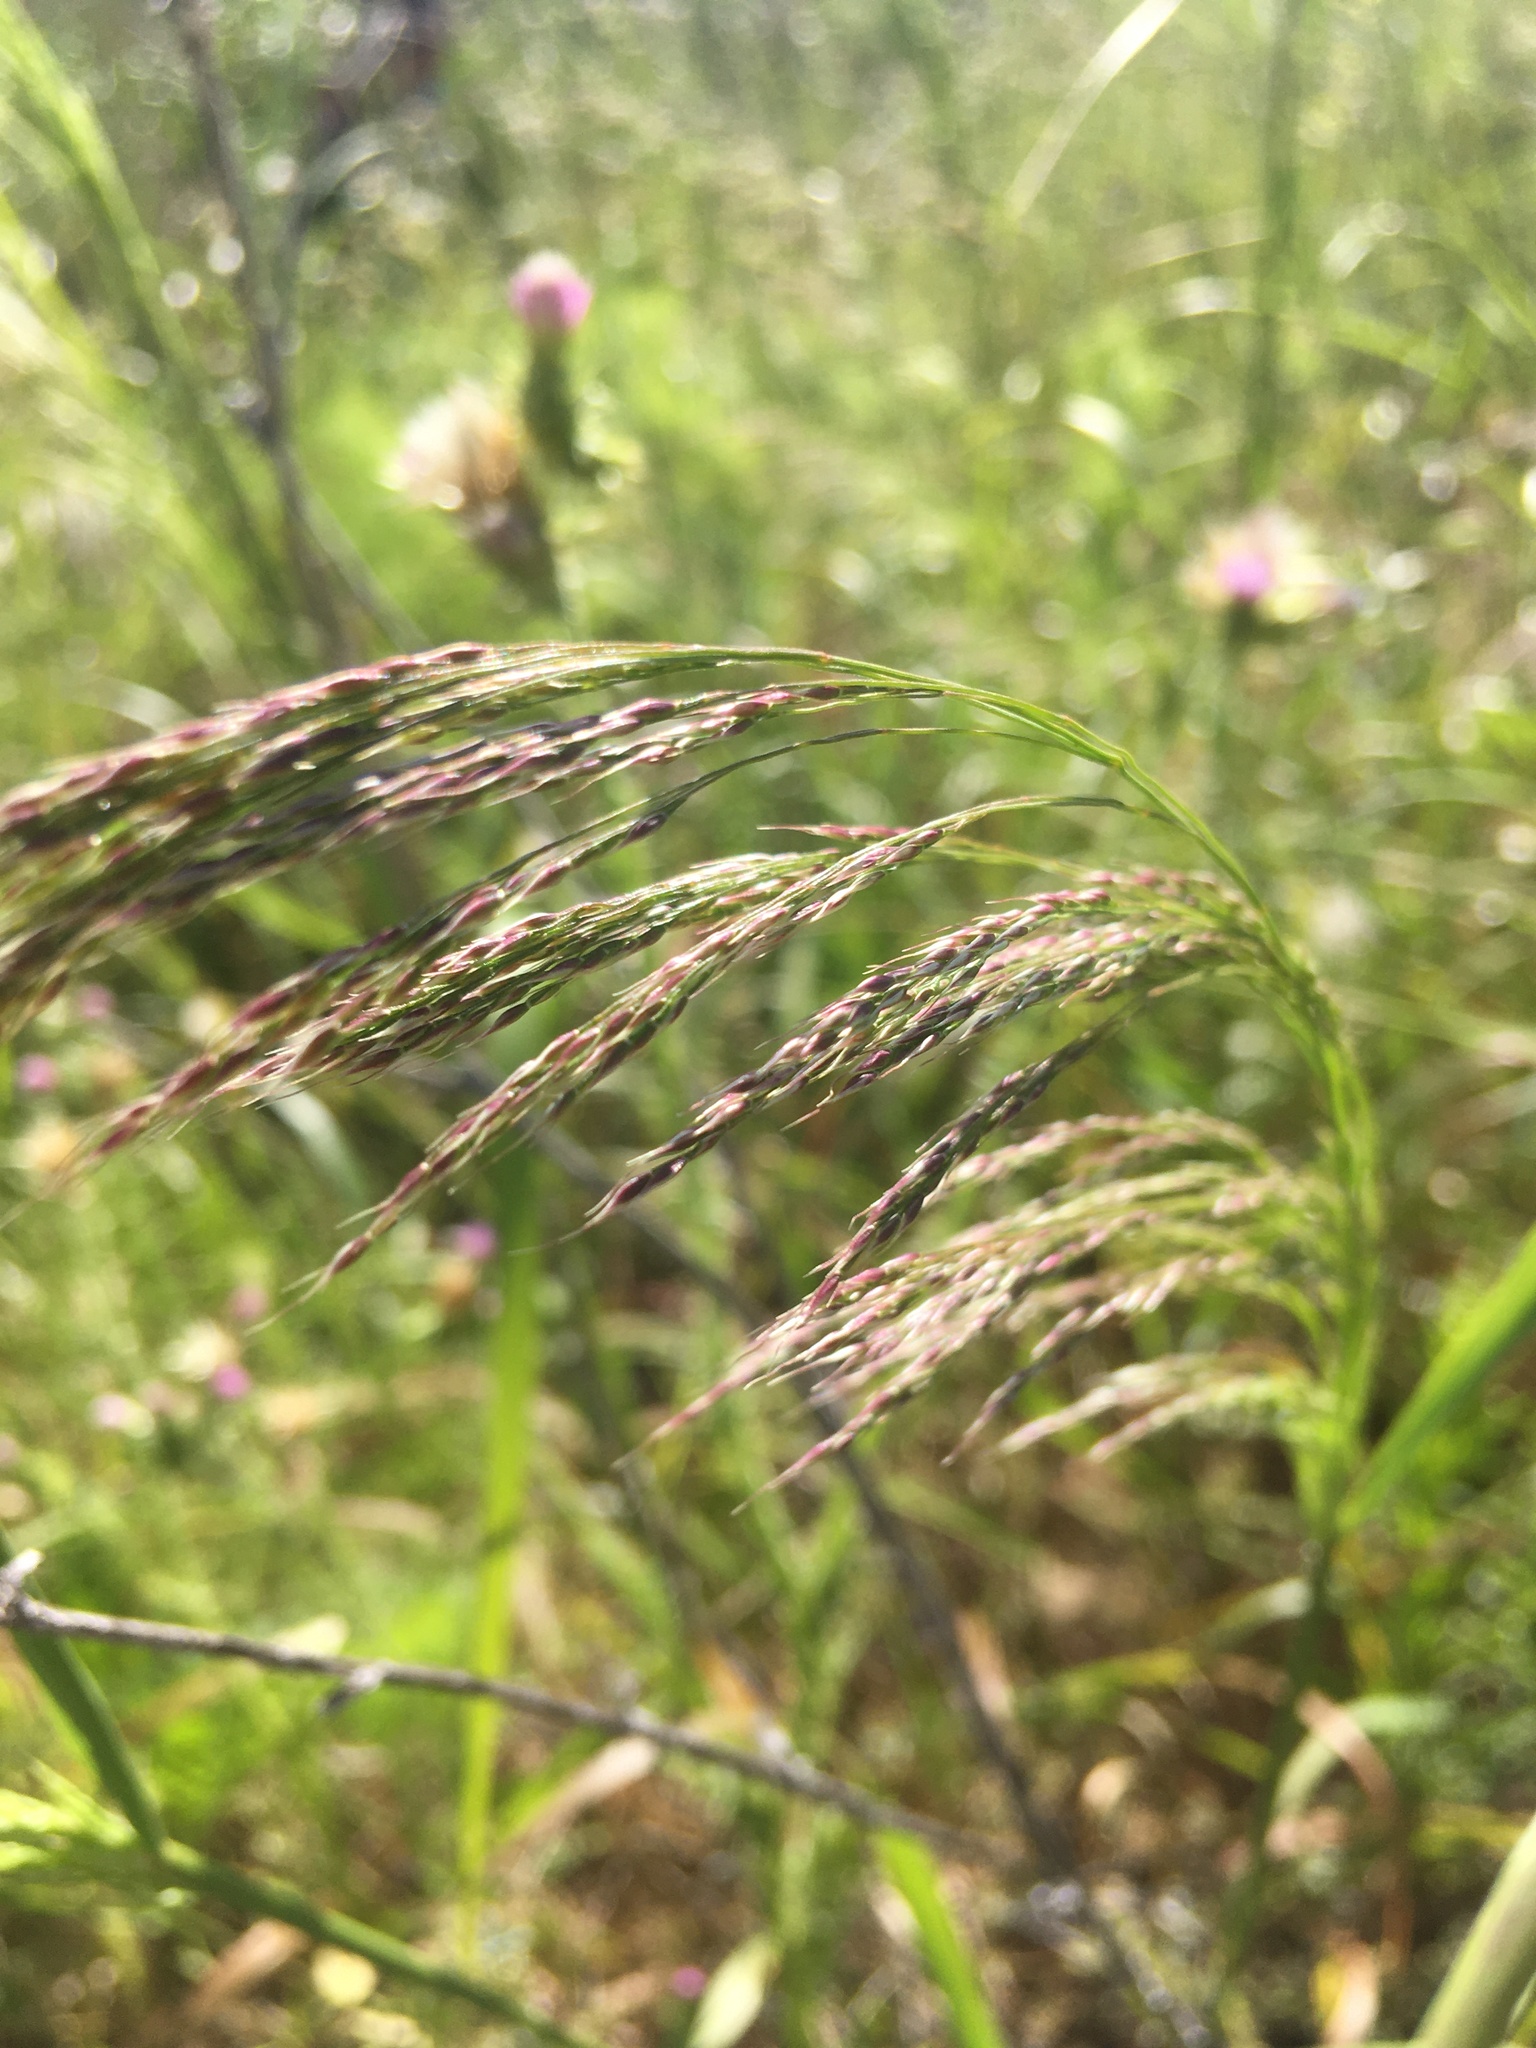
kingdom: Plantae
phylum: Tracheophyta
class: Liliopsida
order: Poales
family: Poaceae
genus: Oloptum
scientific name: Oloptum miliaceum
